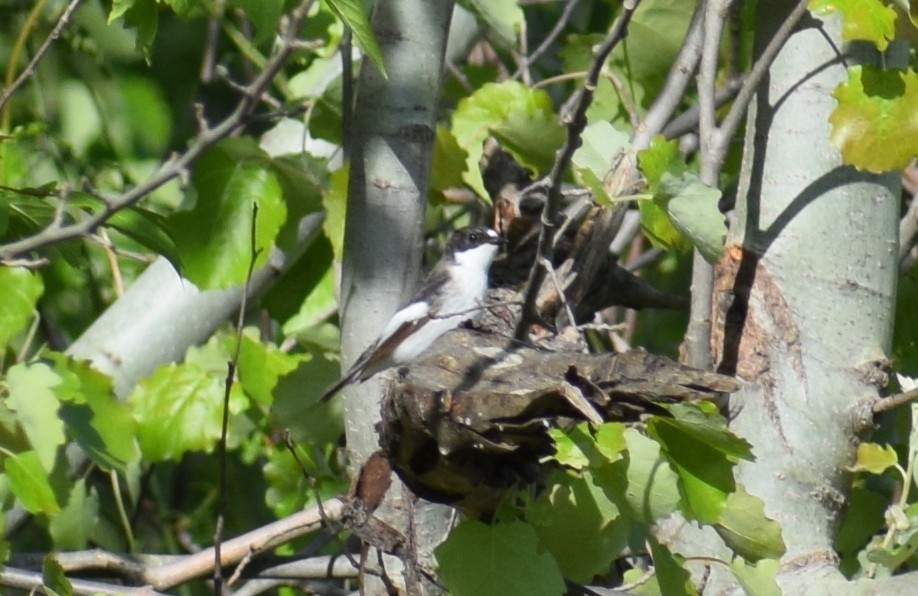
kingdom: Animalia
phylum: Chordata
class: Aves
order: Passeriformes
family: Muscicapidae
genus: Ficedula
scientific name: Ficedula hypoleuca
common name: European pied flycatcher
